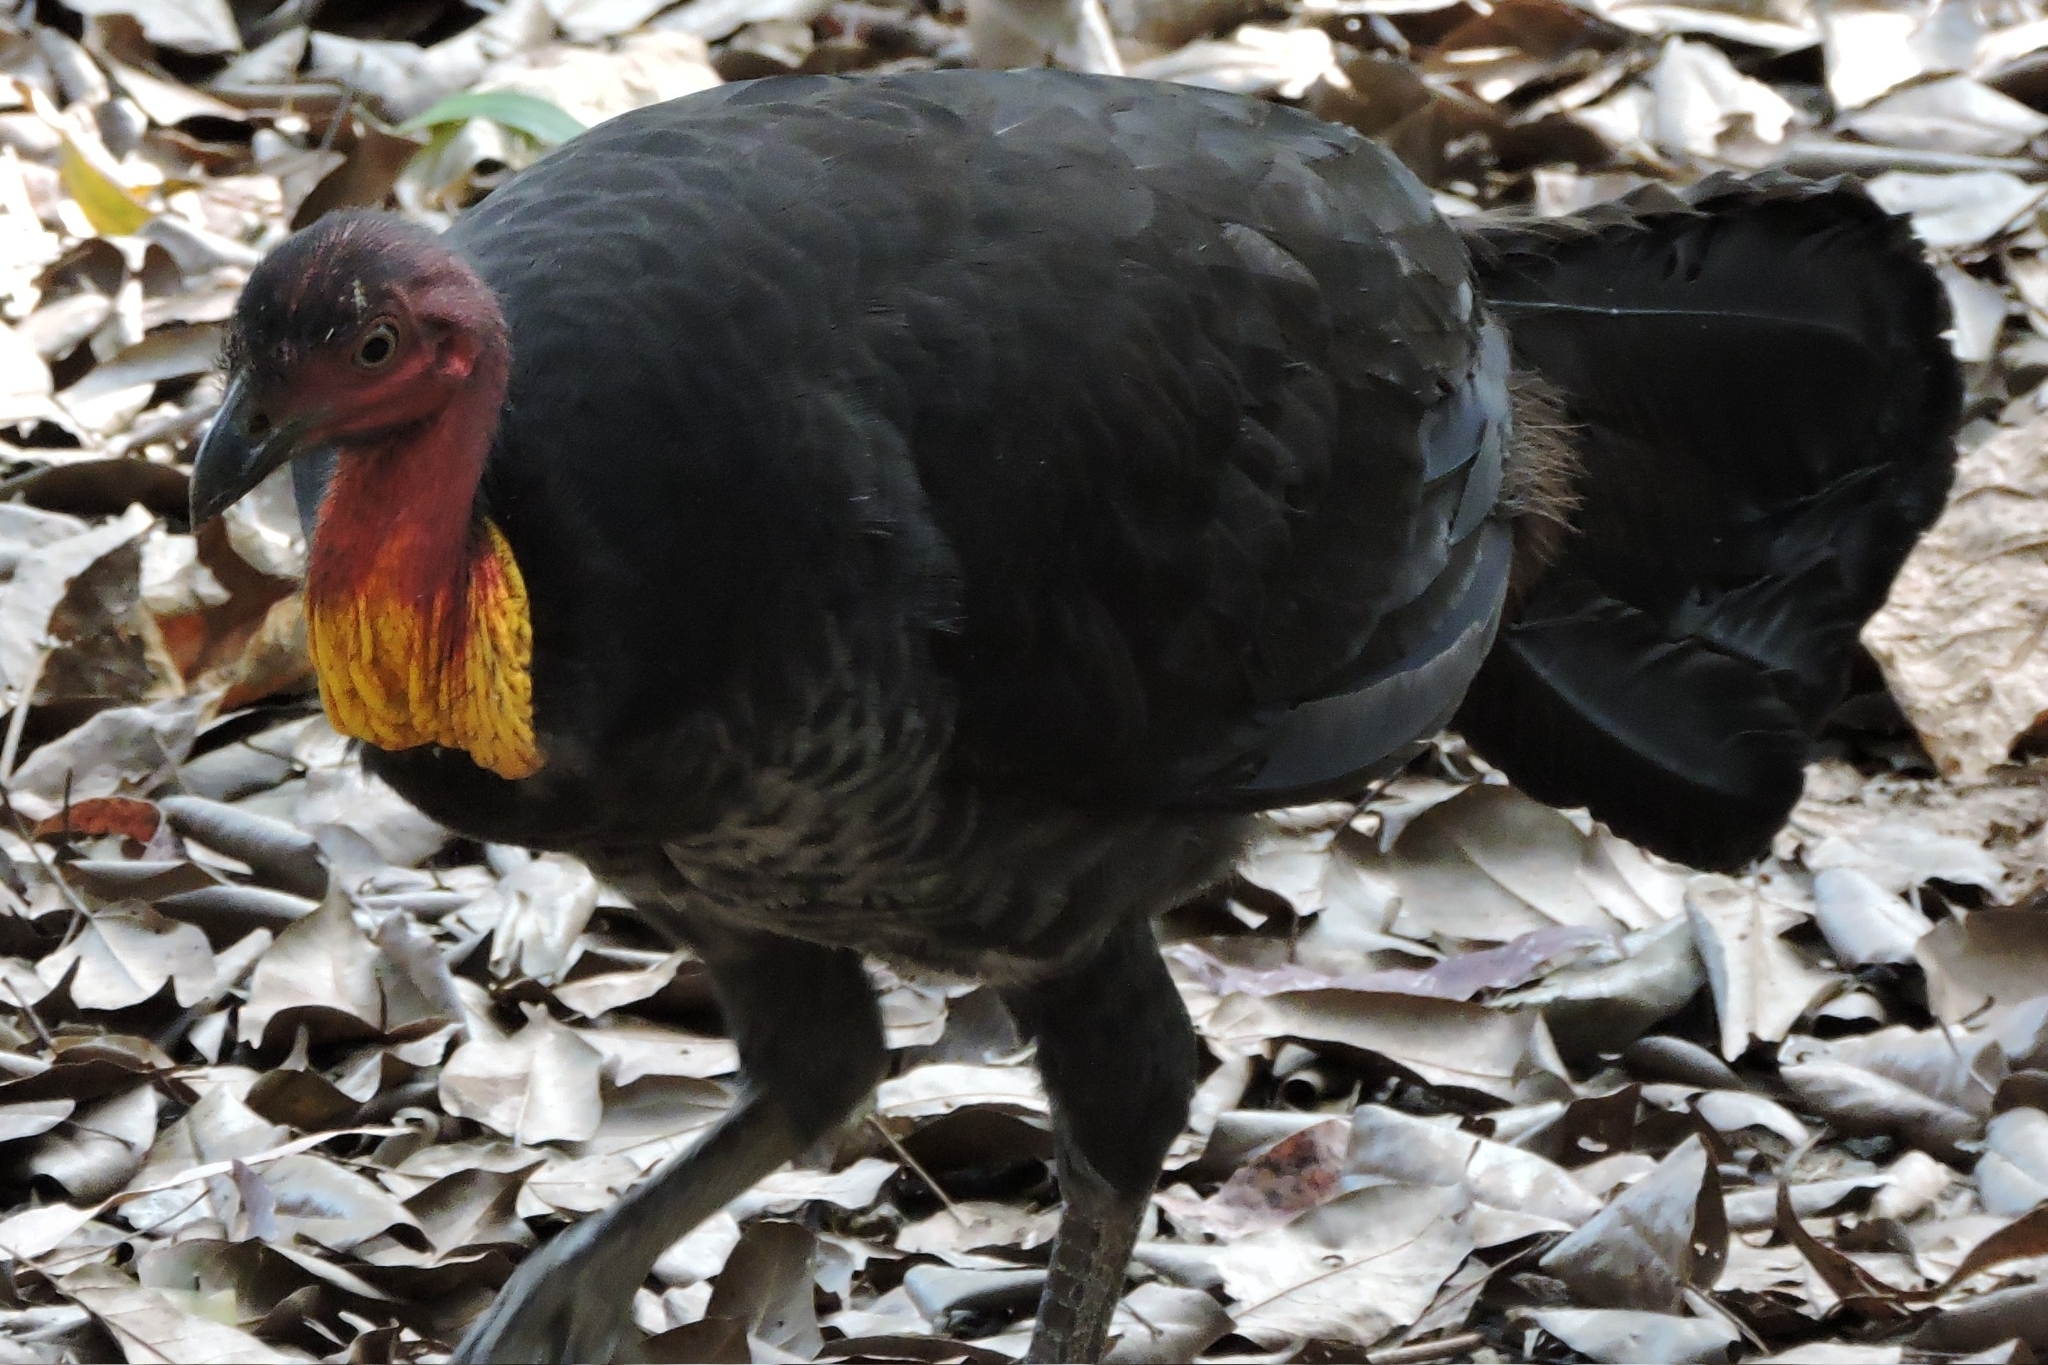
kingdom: Animalia
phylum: Chordata
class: Aves
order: Galliformes
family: Megapodiidae
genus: Alectura
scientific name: Alectura lathami
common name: Australian brushturkey
